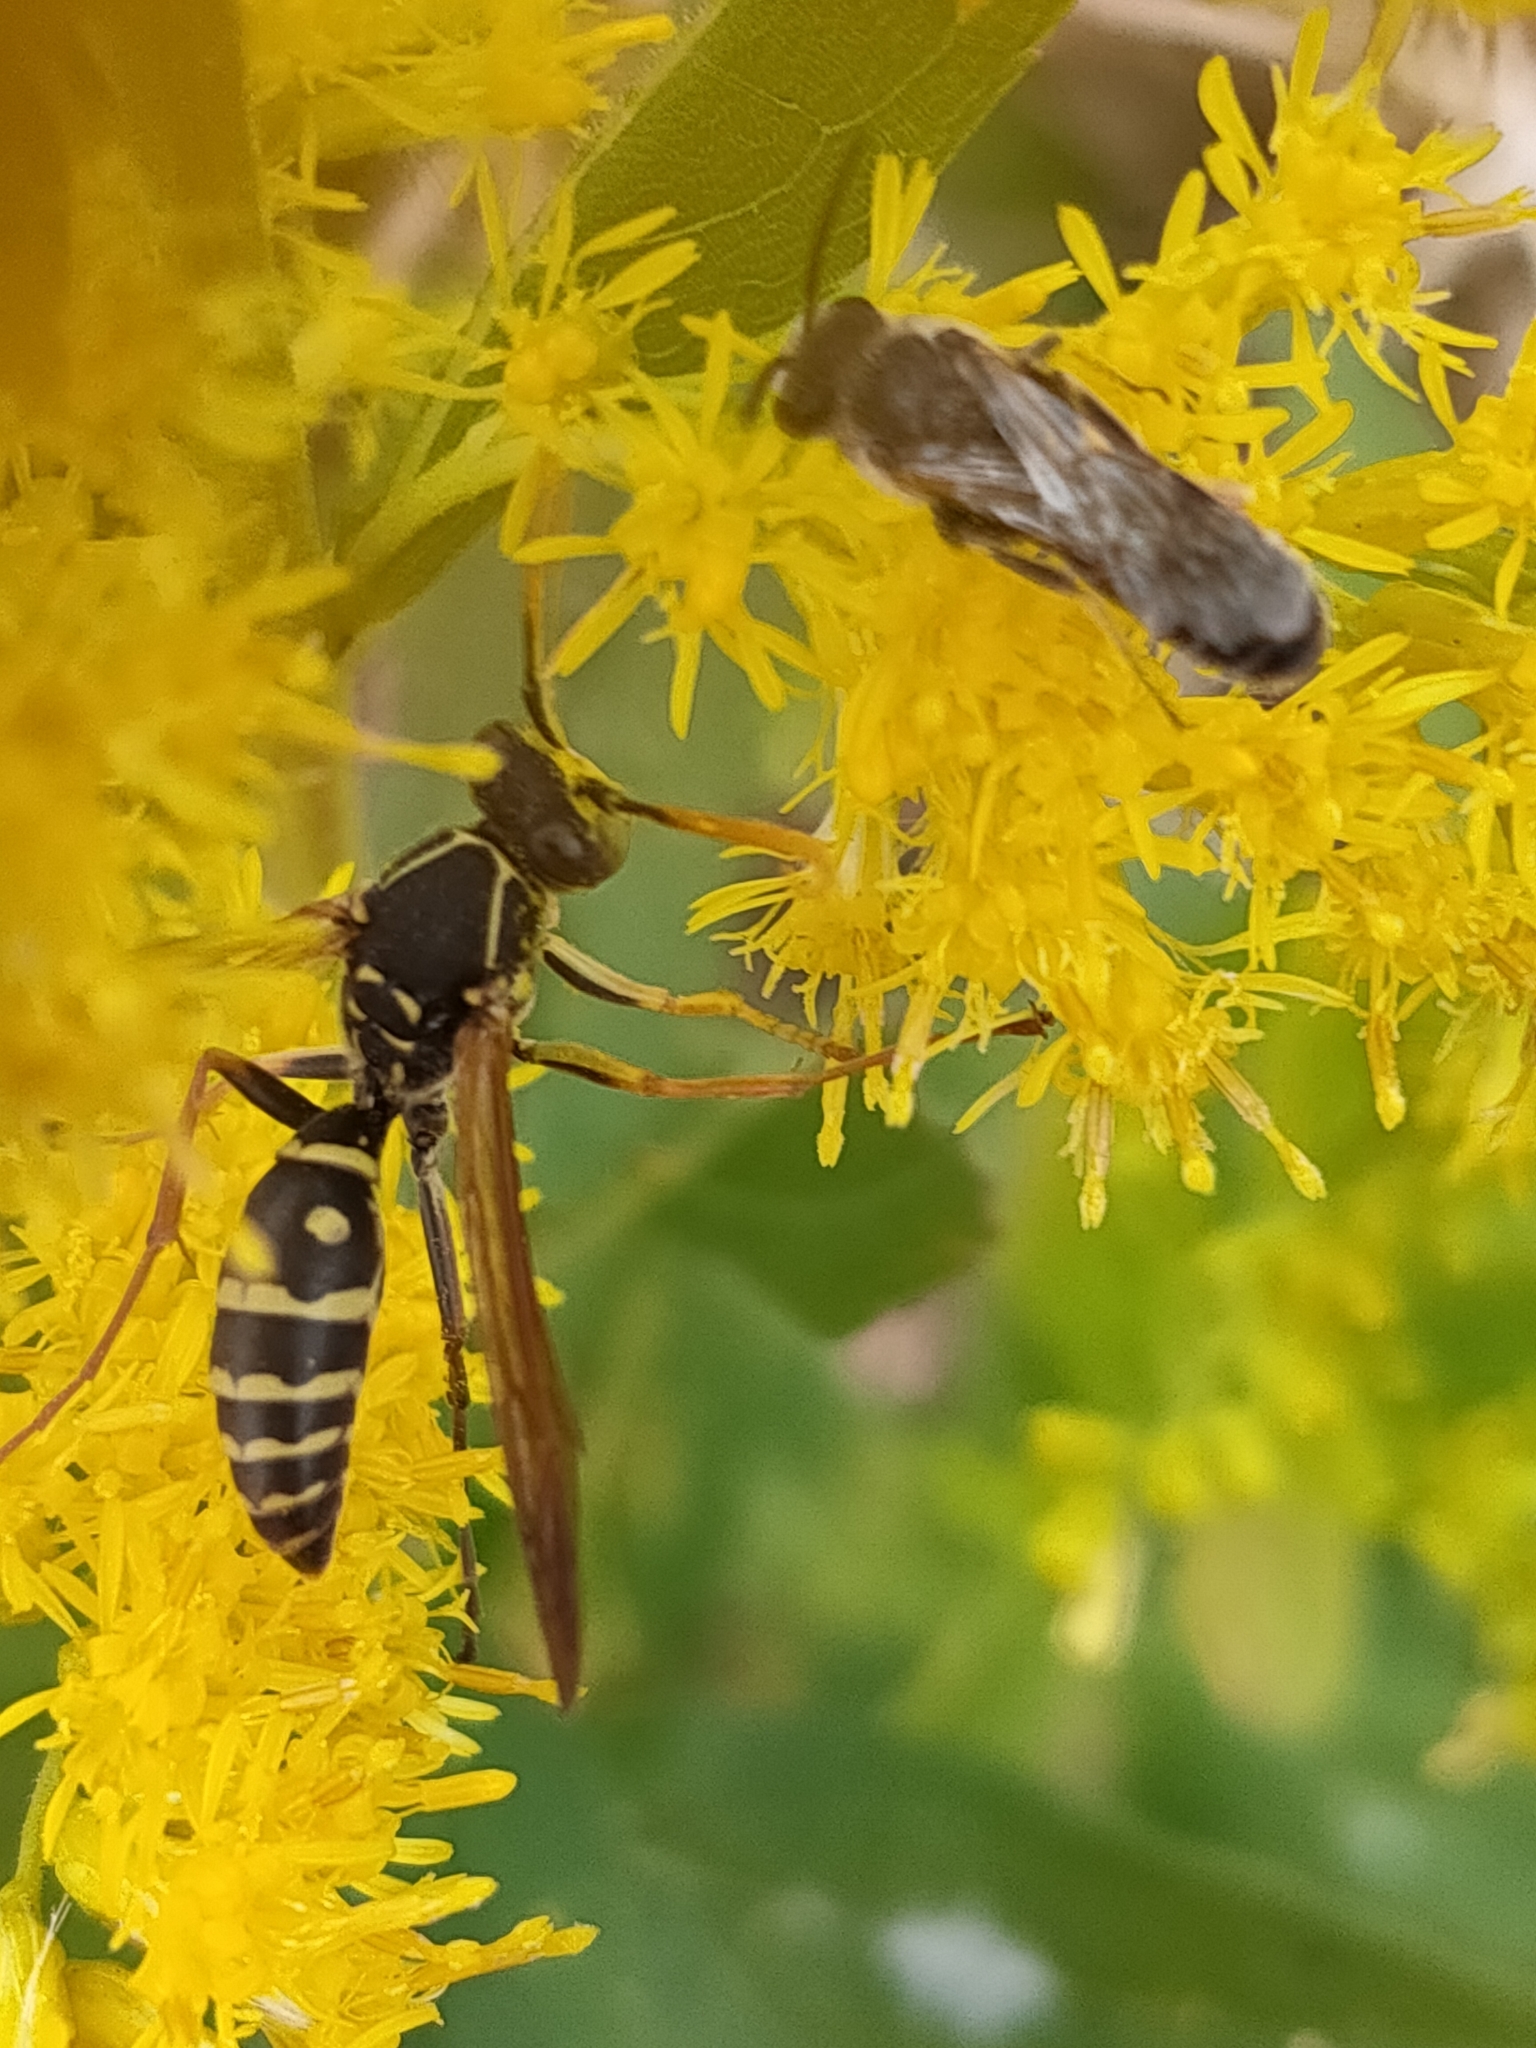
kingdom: Animalia
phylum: Arthropoda
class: Insecta
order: Hymenoptera
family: Eumenidae
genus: Polistes
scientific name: Polistes chinensis
